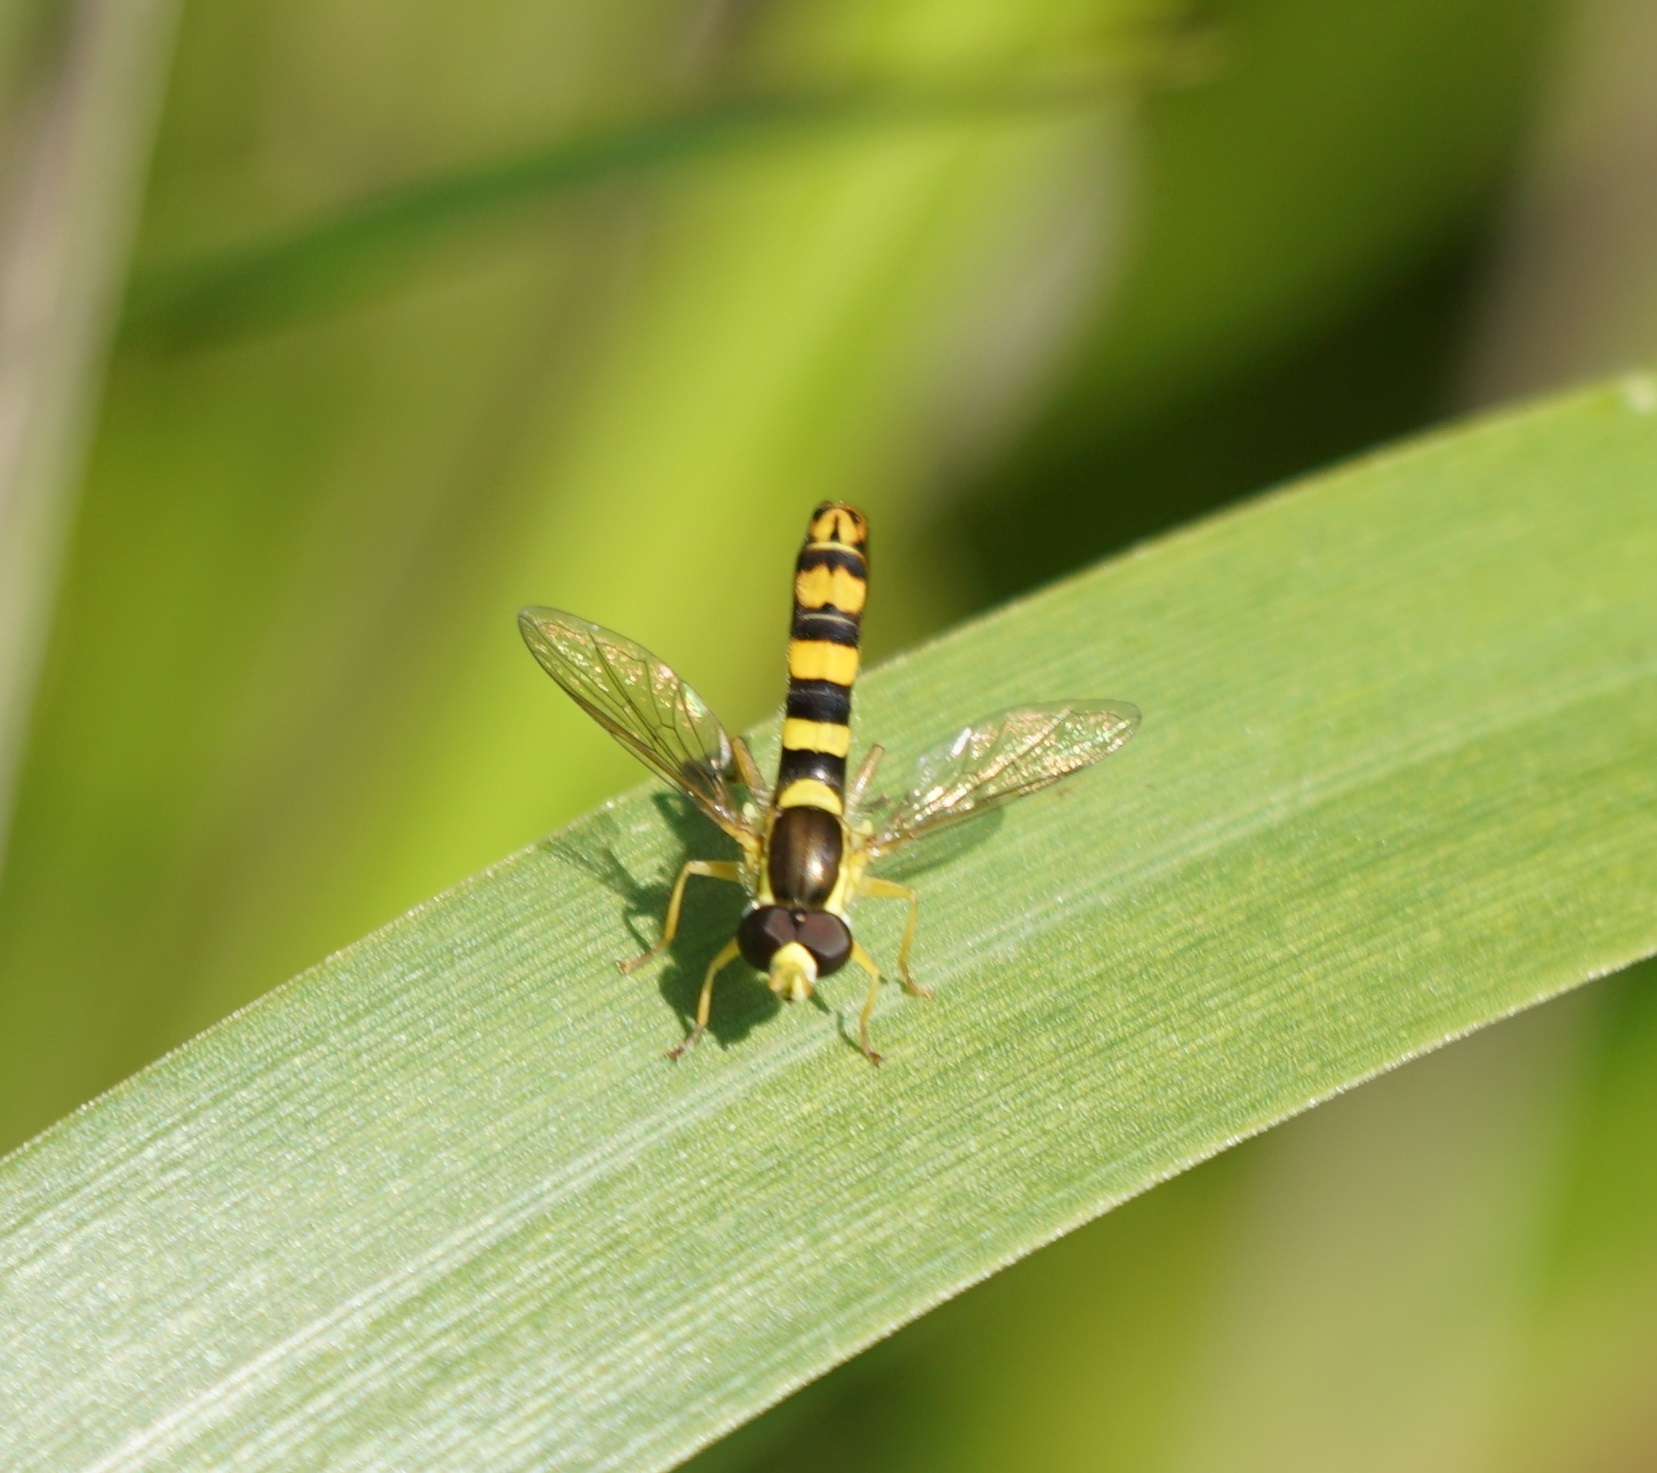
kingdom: Animalia
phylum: Arthropoda
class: Insecta
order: Diptera
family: Syrphidae
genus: Sphaerophoria
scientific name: Sphaerophoria scripta
